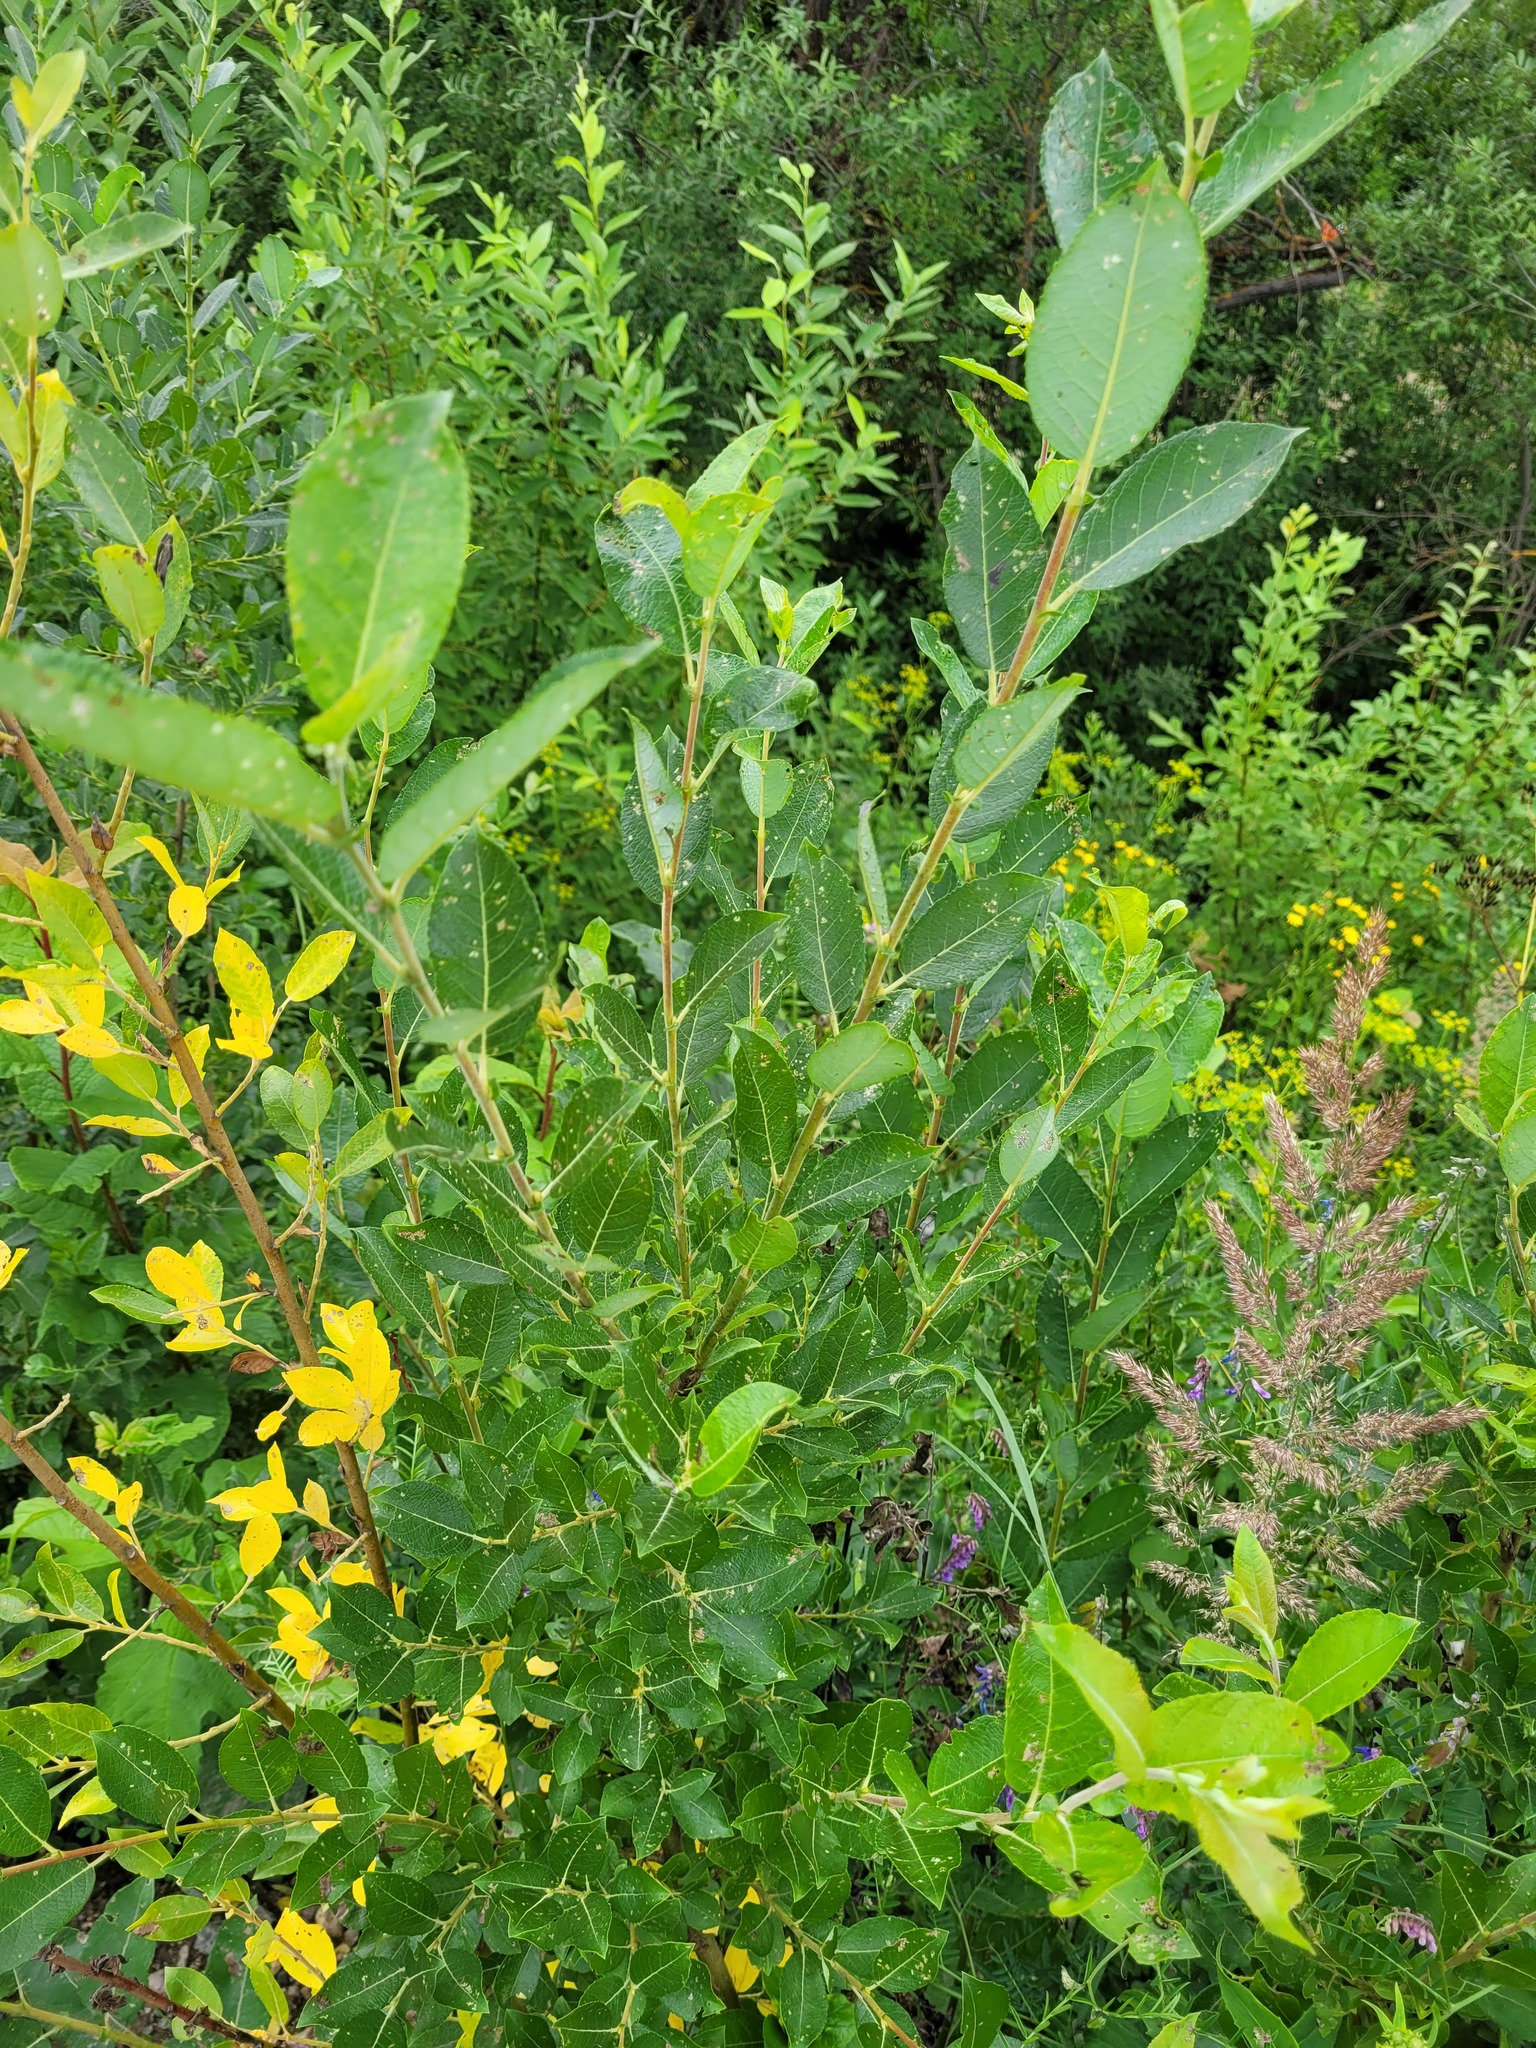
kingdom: Plantae
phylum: Tracheophyta
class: Magnoliopsida
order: Malpighiales
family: Salicaceae
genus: Salix
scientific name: Salix myrsinifolia
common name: Dark-leaved willow
